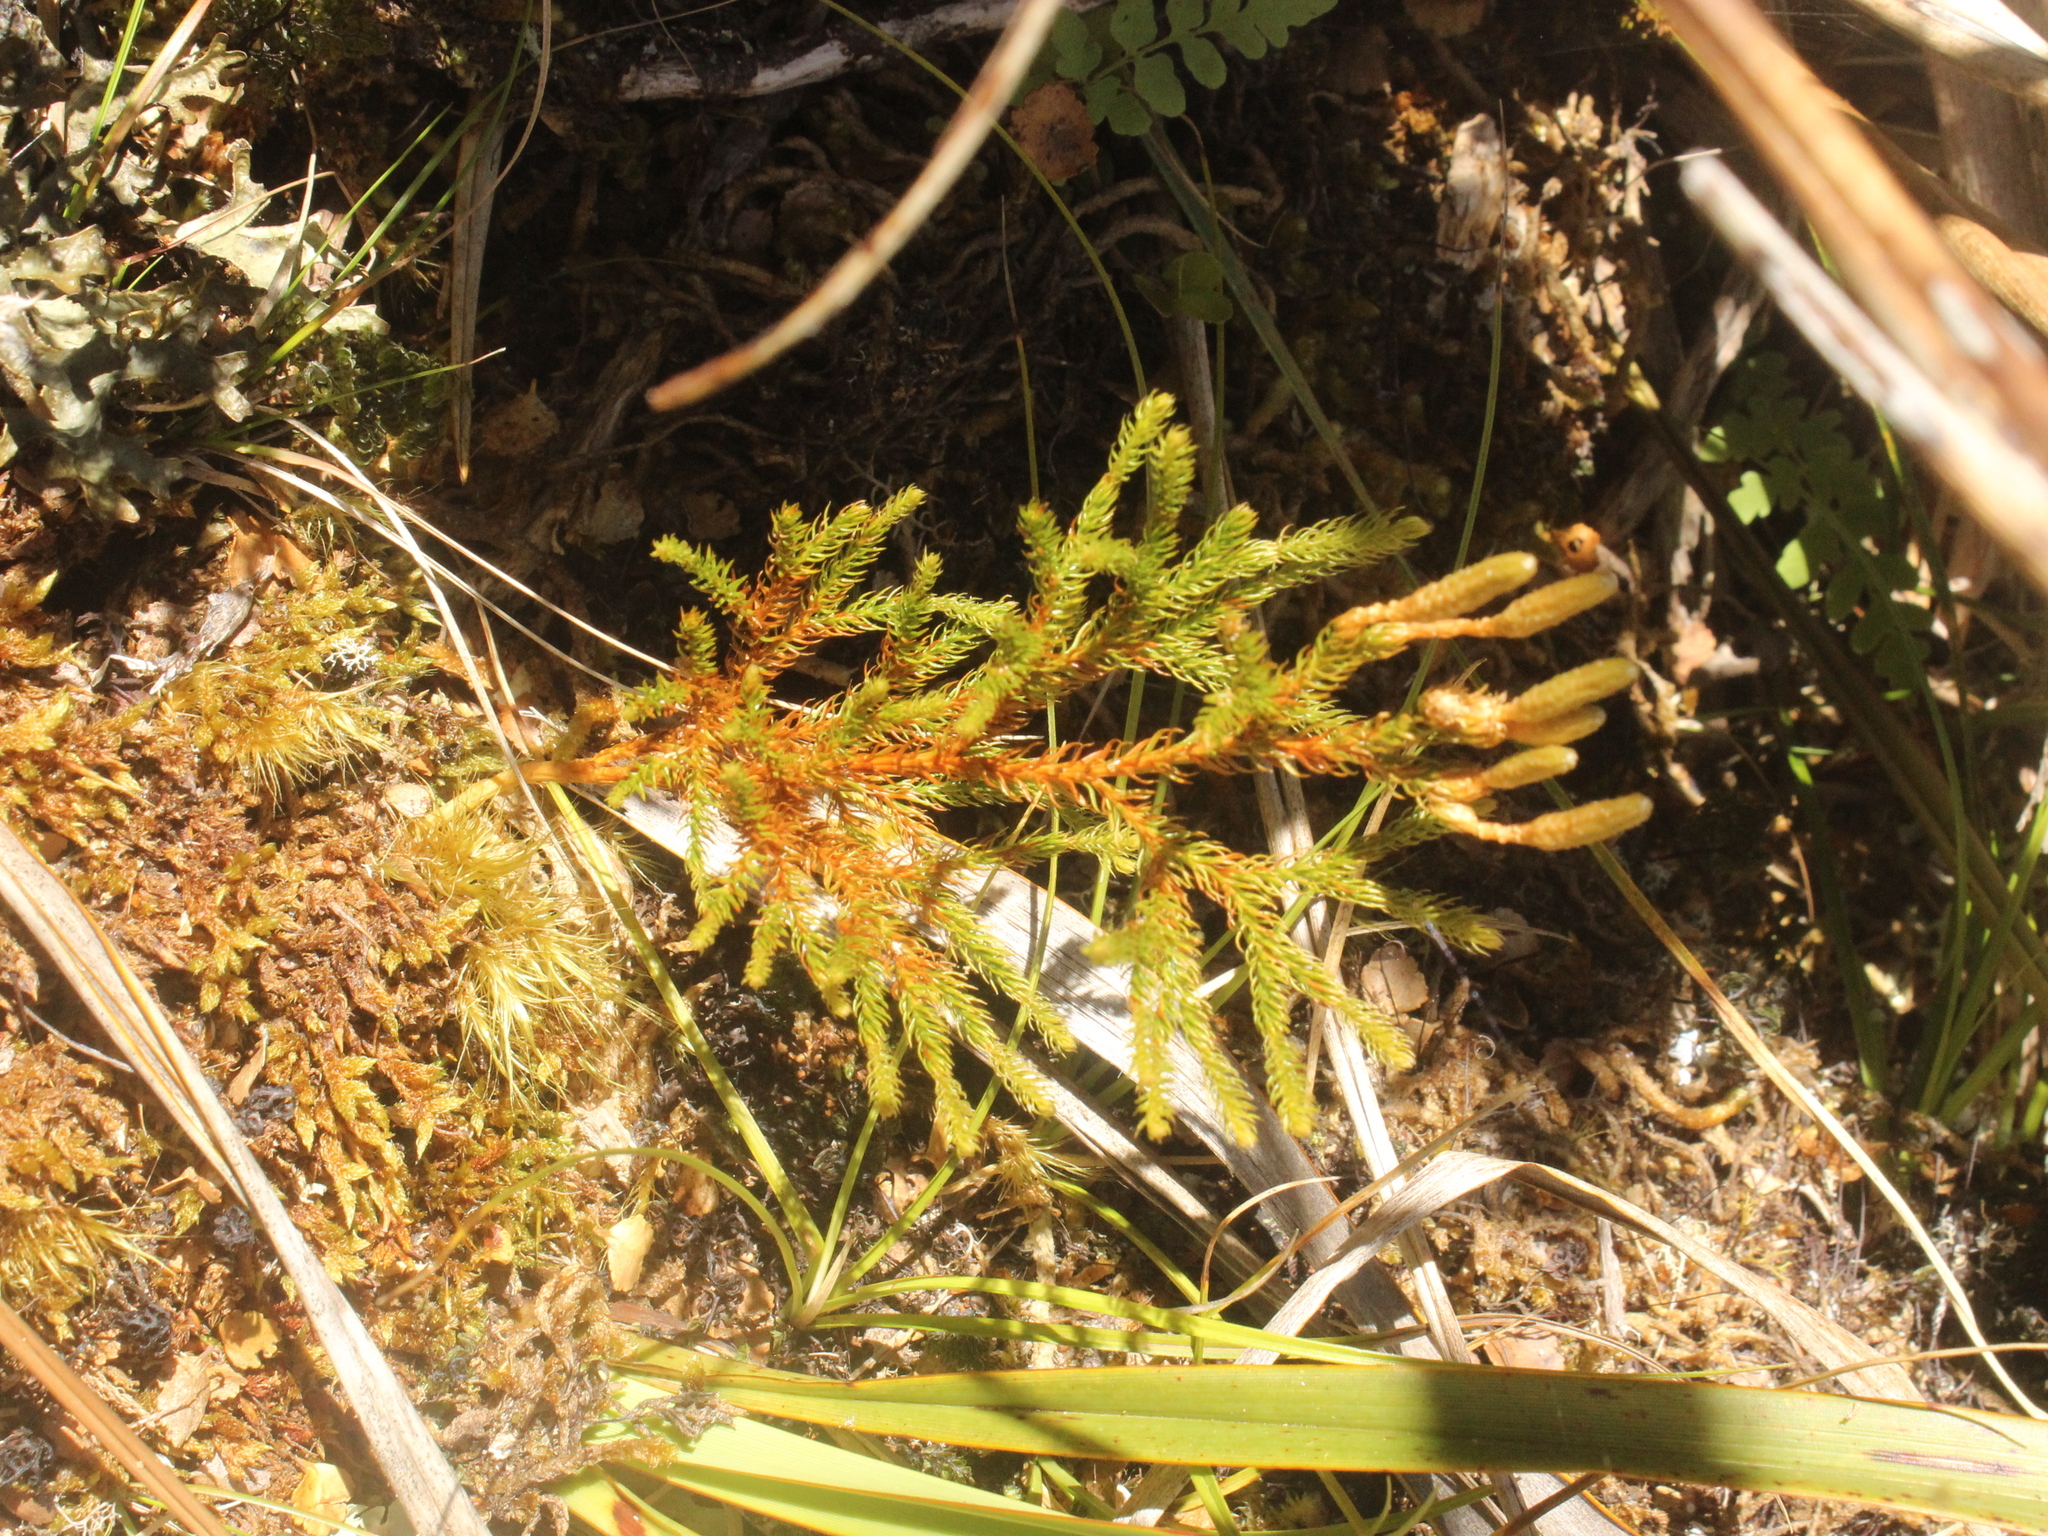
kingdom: Plantae
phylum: Tracheophyta
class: Lycopodiopsida
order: Lycopodiales
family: Lycopodiaceae
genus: Austrolycopodium
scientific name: Austrolycopodium fastigiatum
